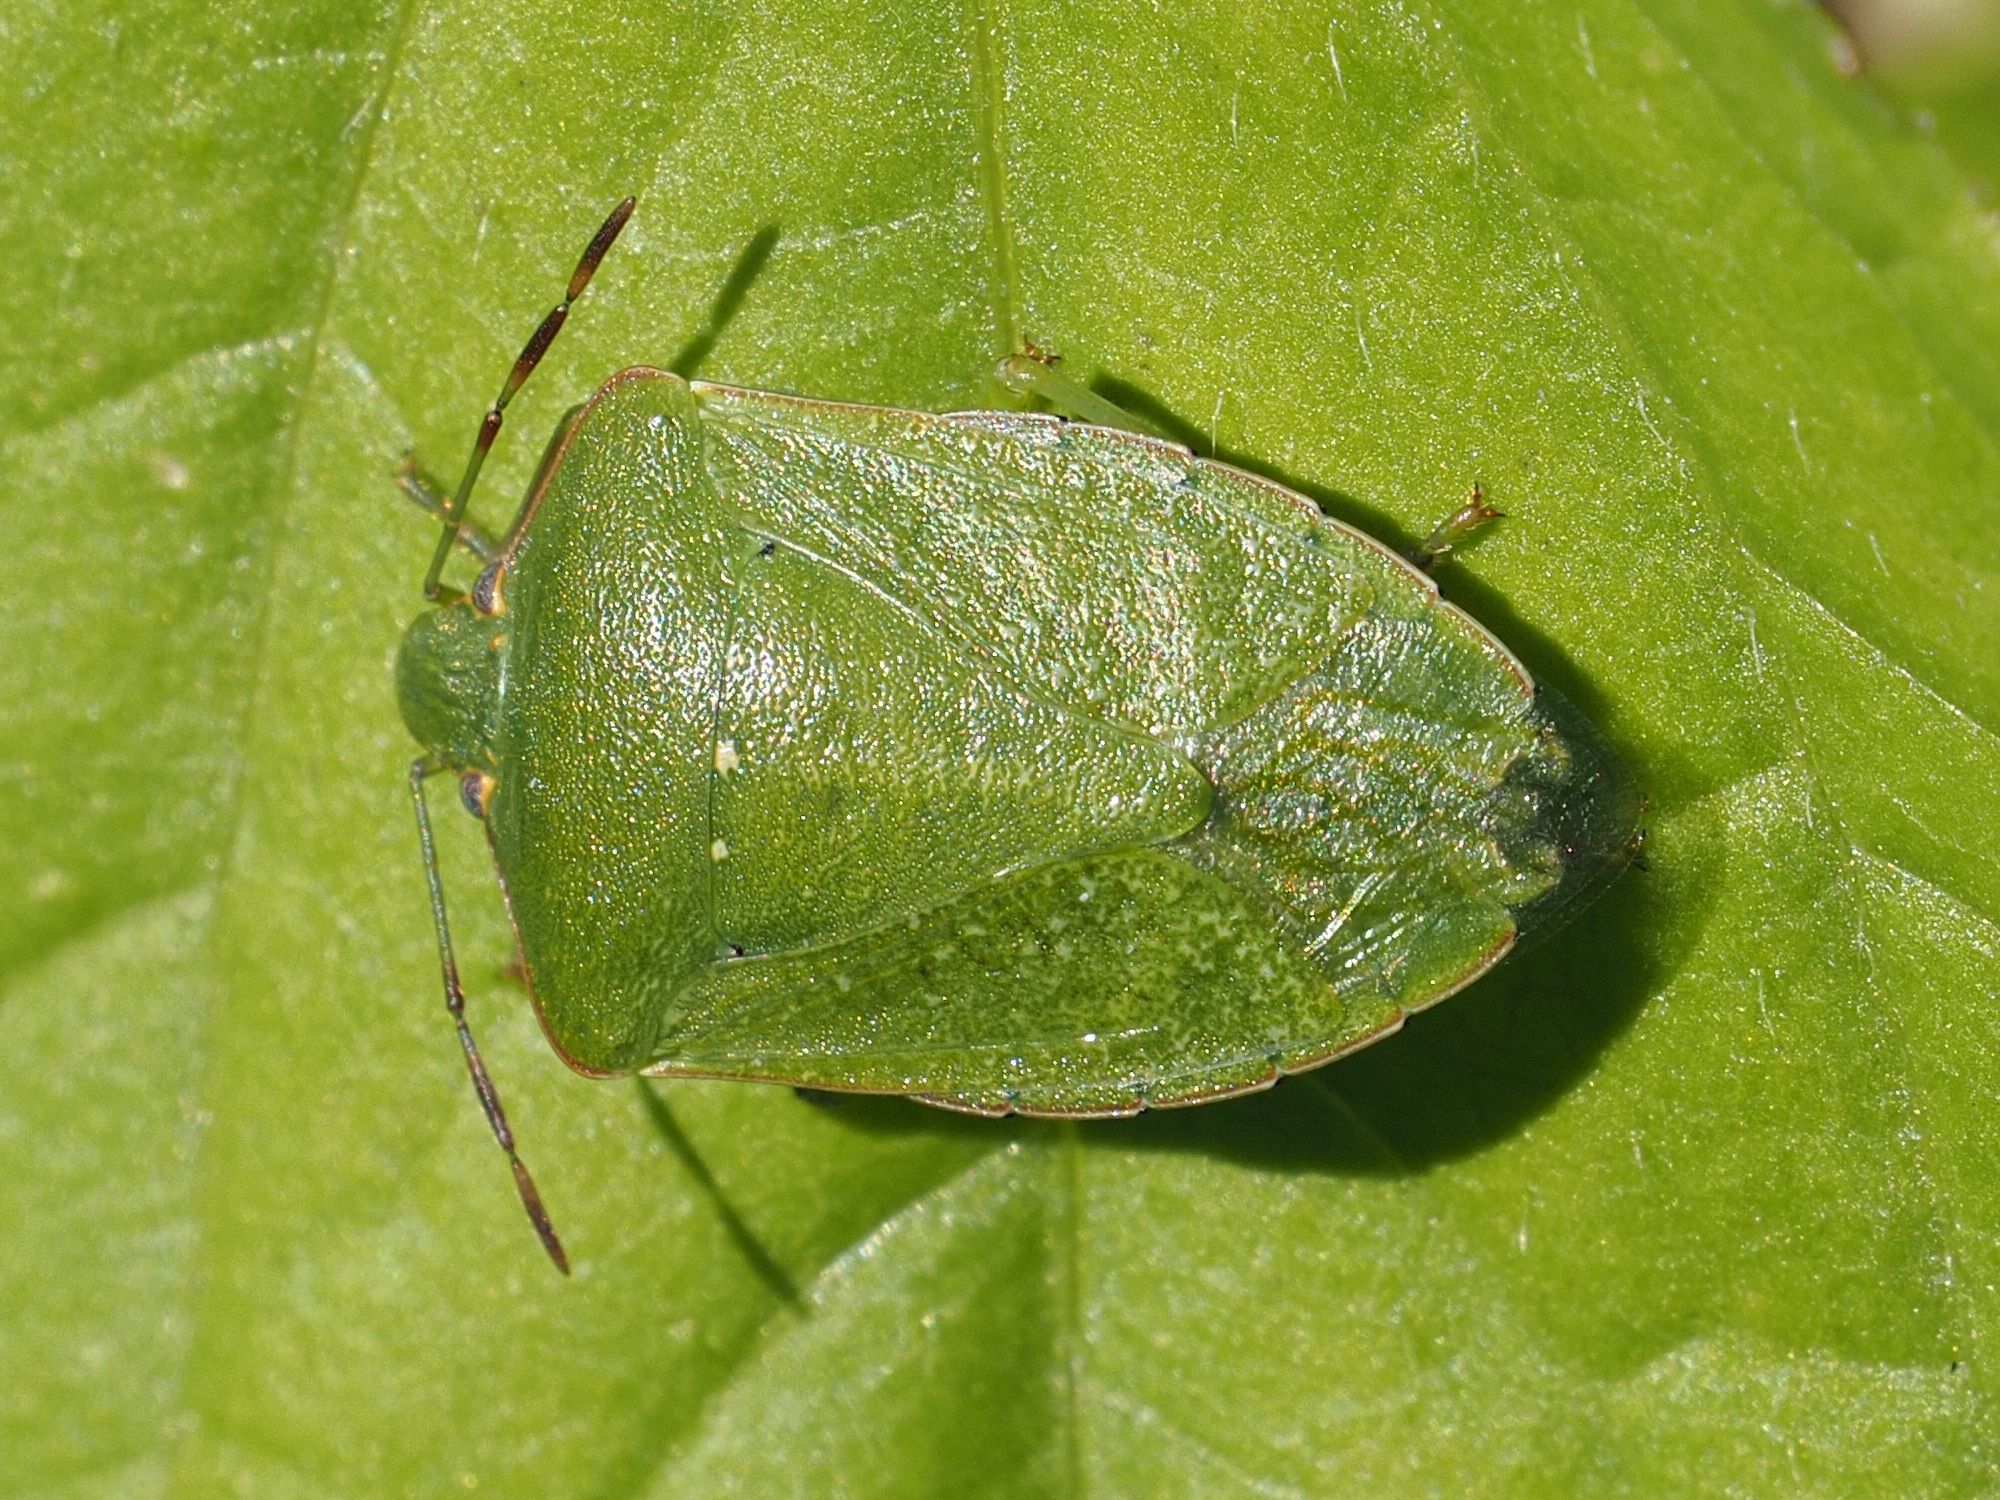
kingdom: Animalia
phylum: Arthropoda
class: Insecta
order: Hemiptera
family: Pentatomidae
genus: Nezara
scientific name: Nezara viridula
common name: Southern green stink bug
